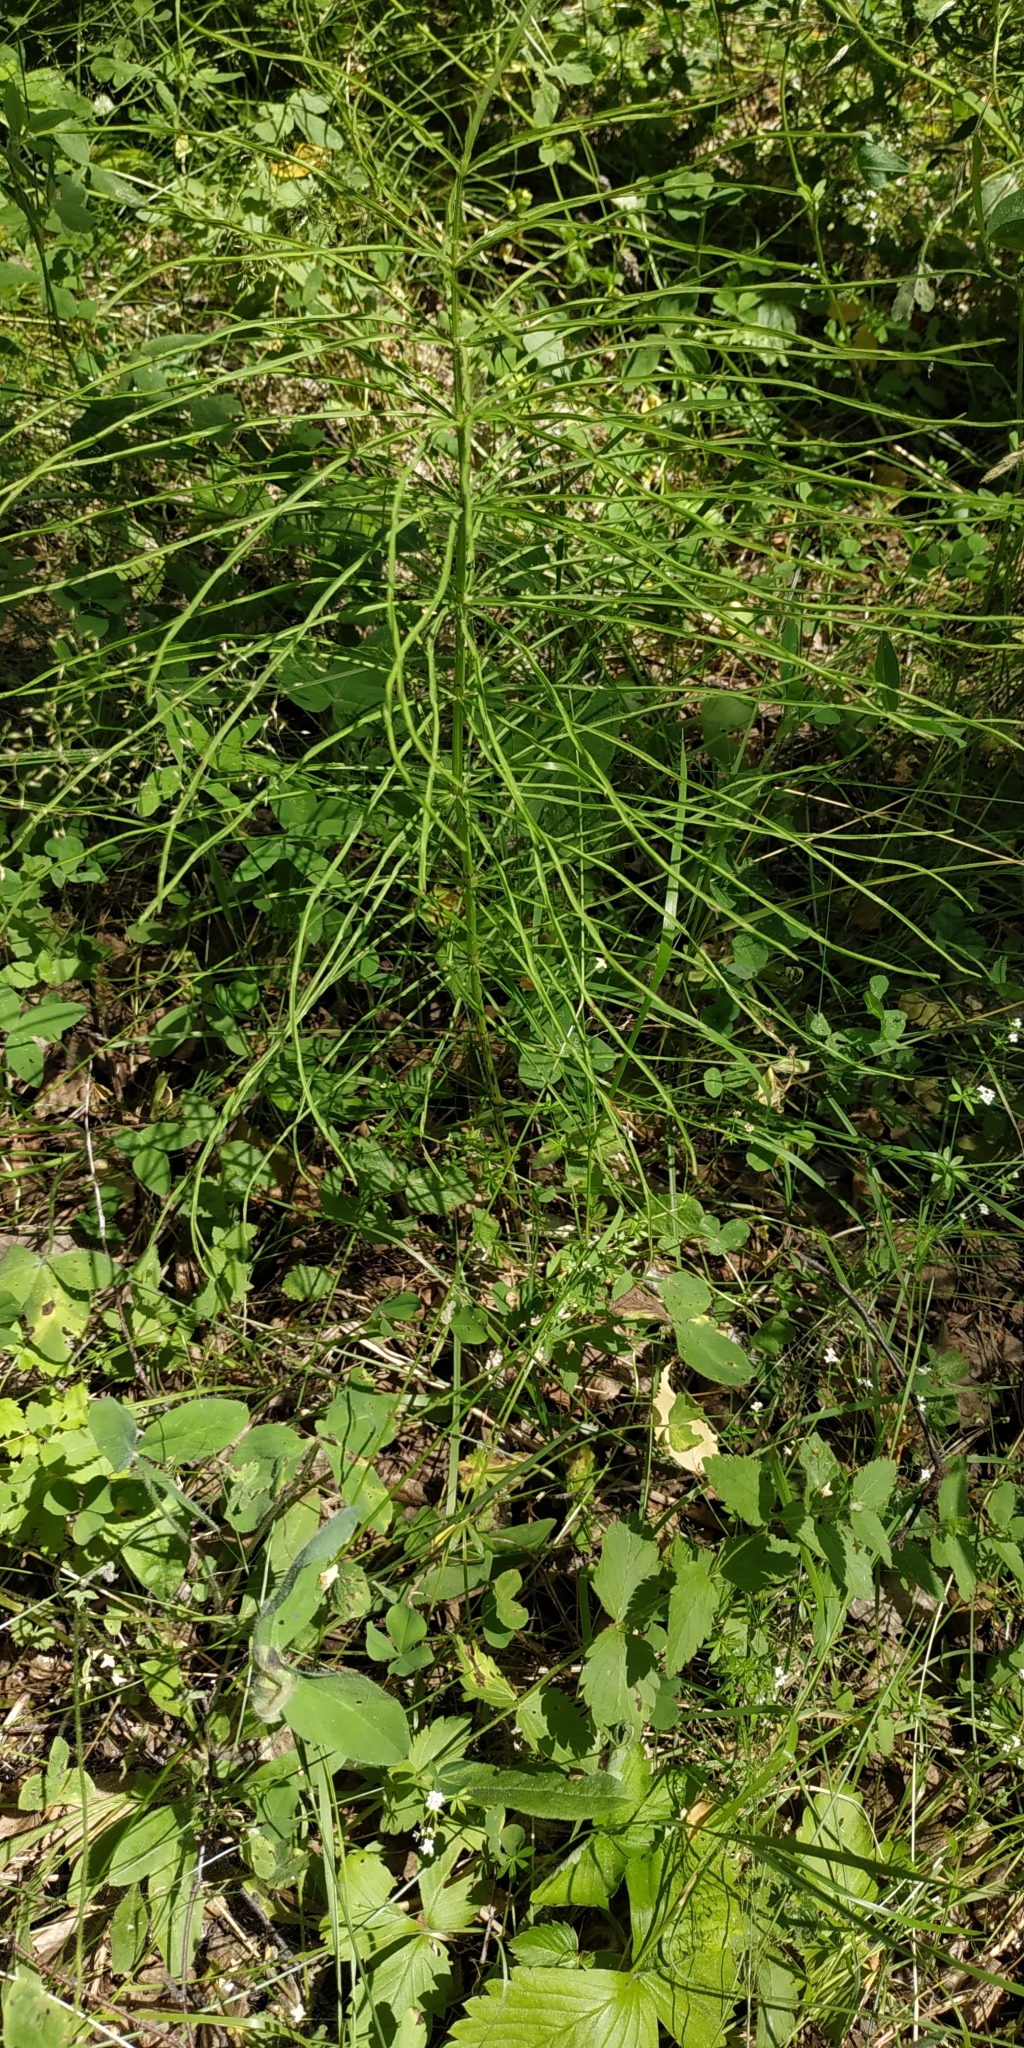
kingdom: Plantae
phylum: Tracheophyta
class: Polypodiopsida
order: Equisetales
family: Equisetaceae
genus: Equisetum
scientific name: Equisetum pratense
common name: Meadow horsetail
